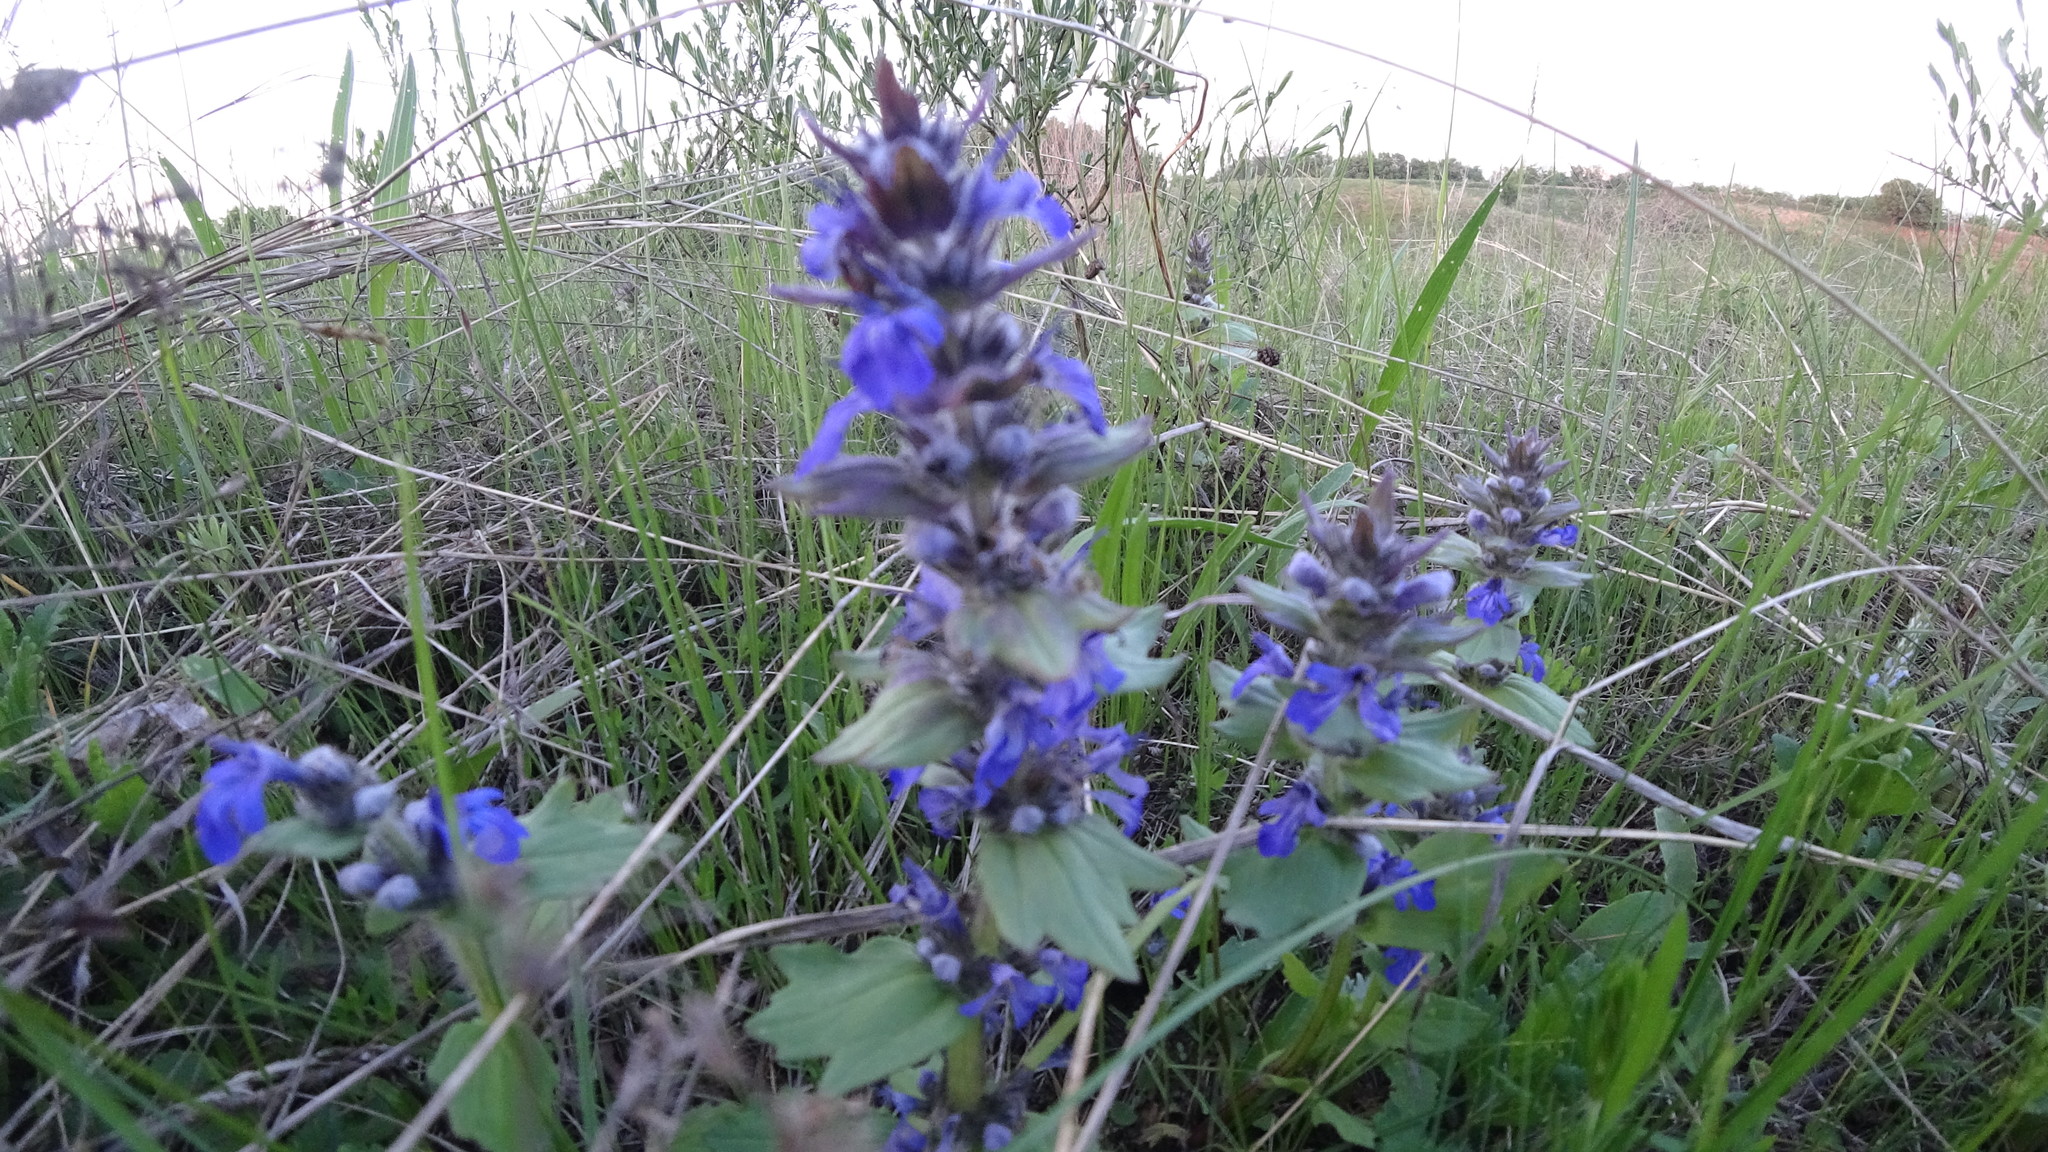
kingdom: Plantae
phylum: Tracheophyta
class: Magnoliopsida
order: Lamiales
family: Lamiaceae
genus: Ajuga
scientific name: Ajuga genevensis
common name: Blue bugle
